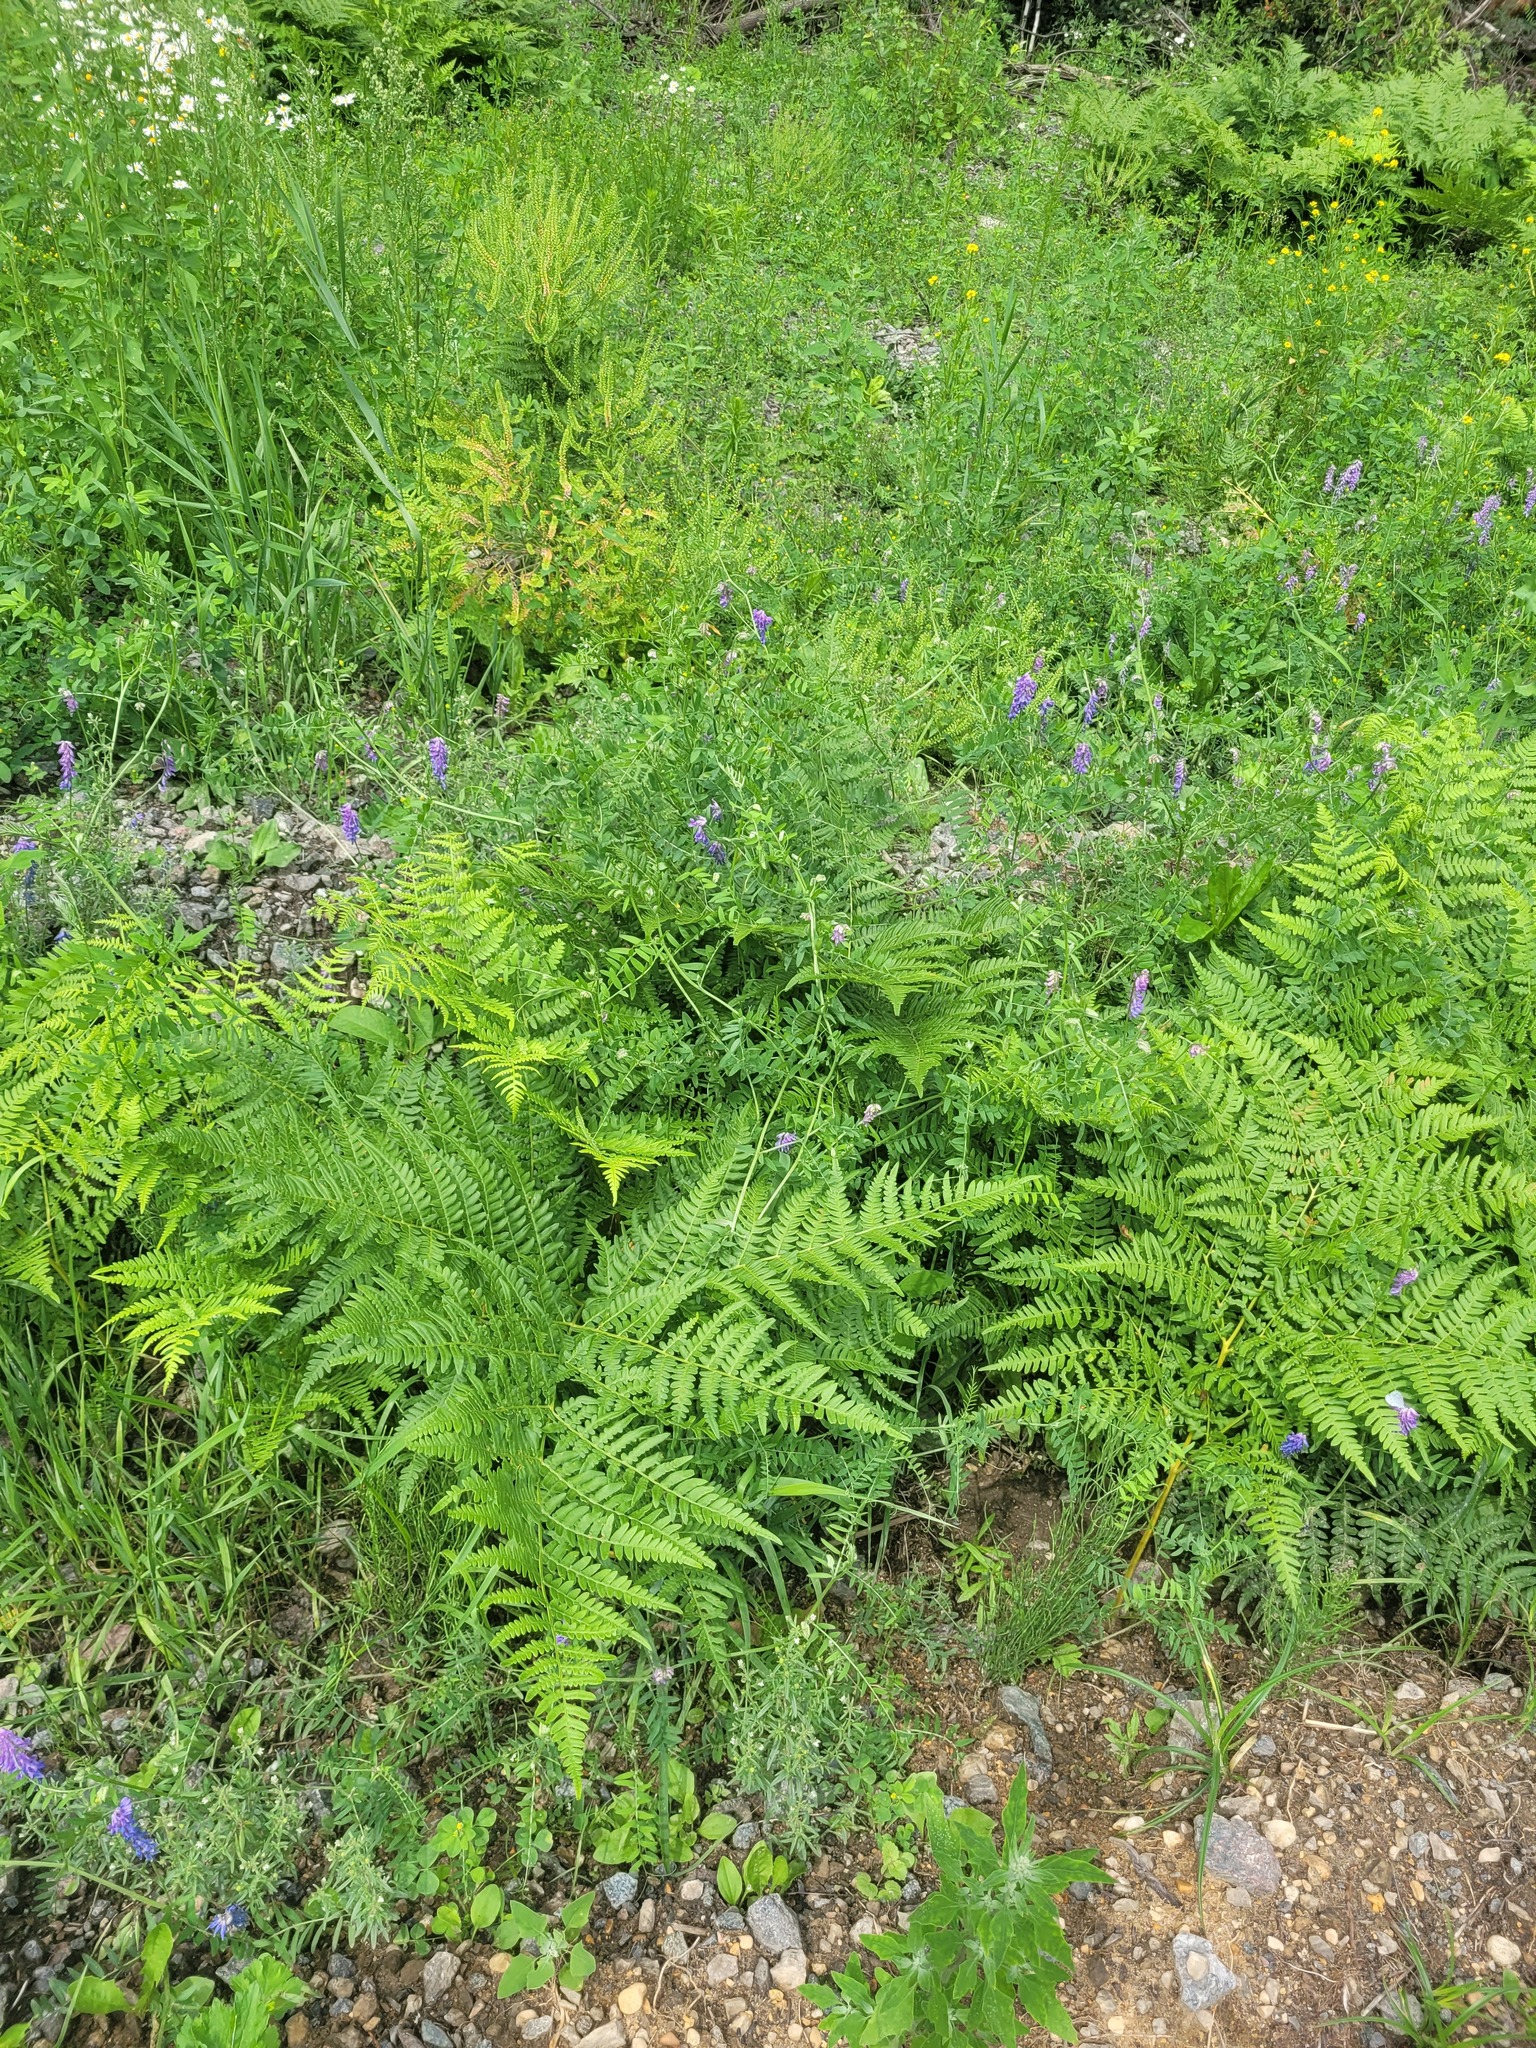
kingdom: Plantae
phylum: Tracheophyta
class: Polypodiopsida
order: Polypodiales
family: Dennstaedtiaceae
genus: Pteridium
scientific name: Pteridium aquilinum
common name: Bracken
